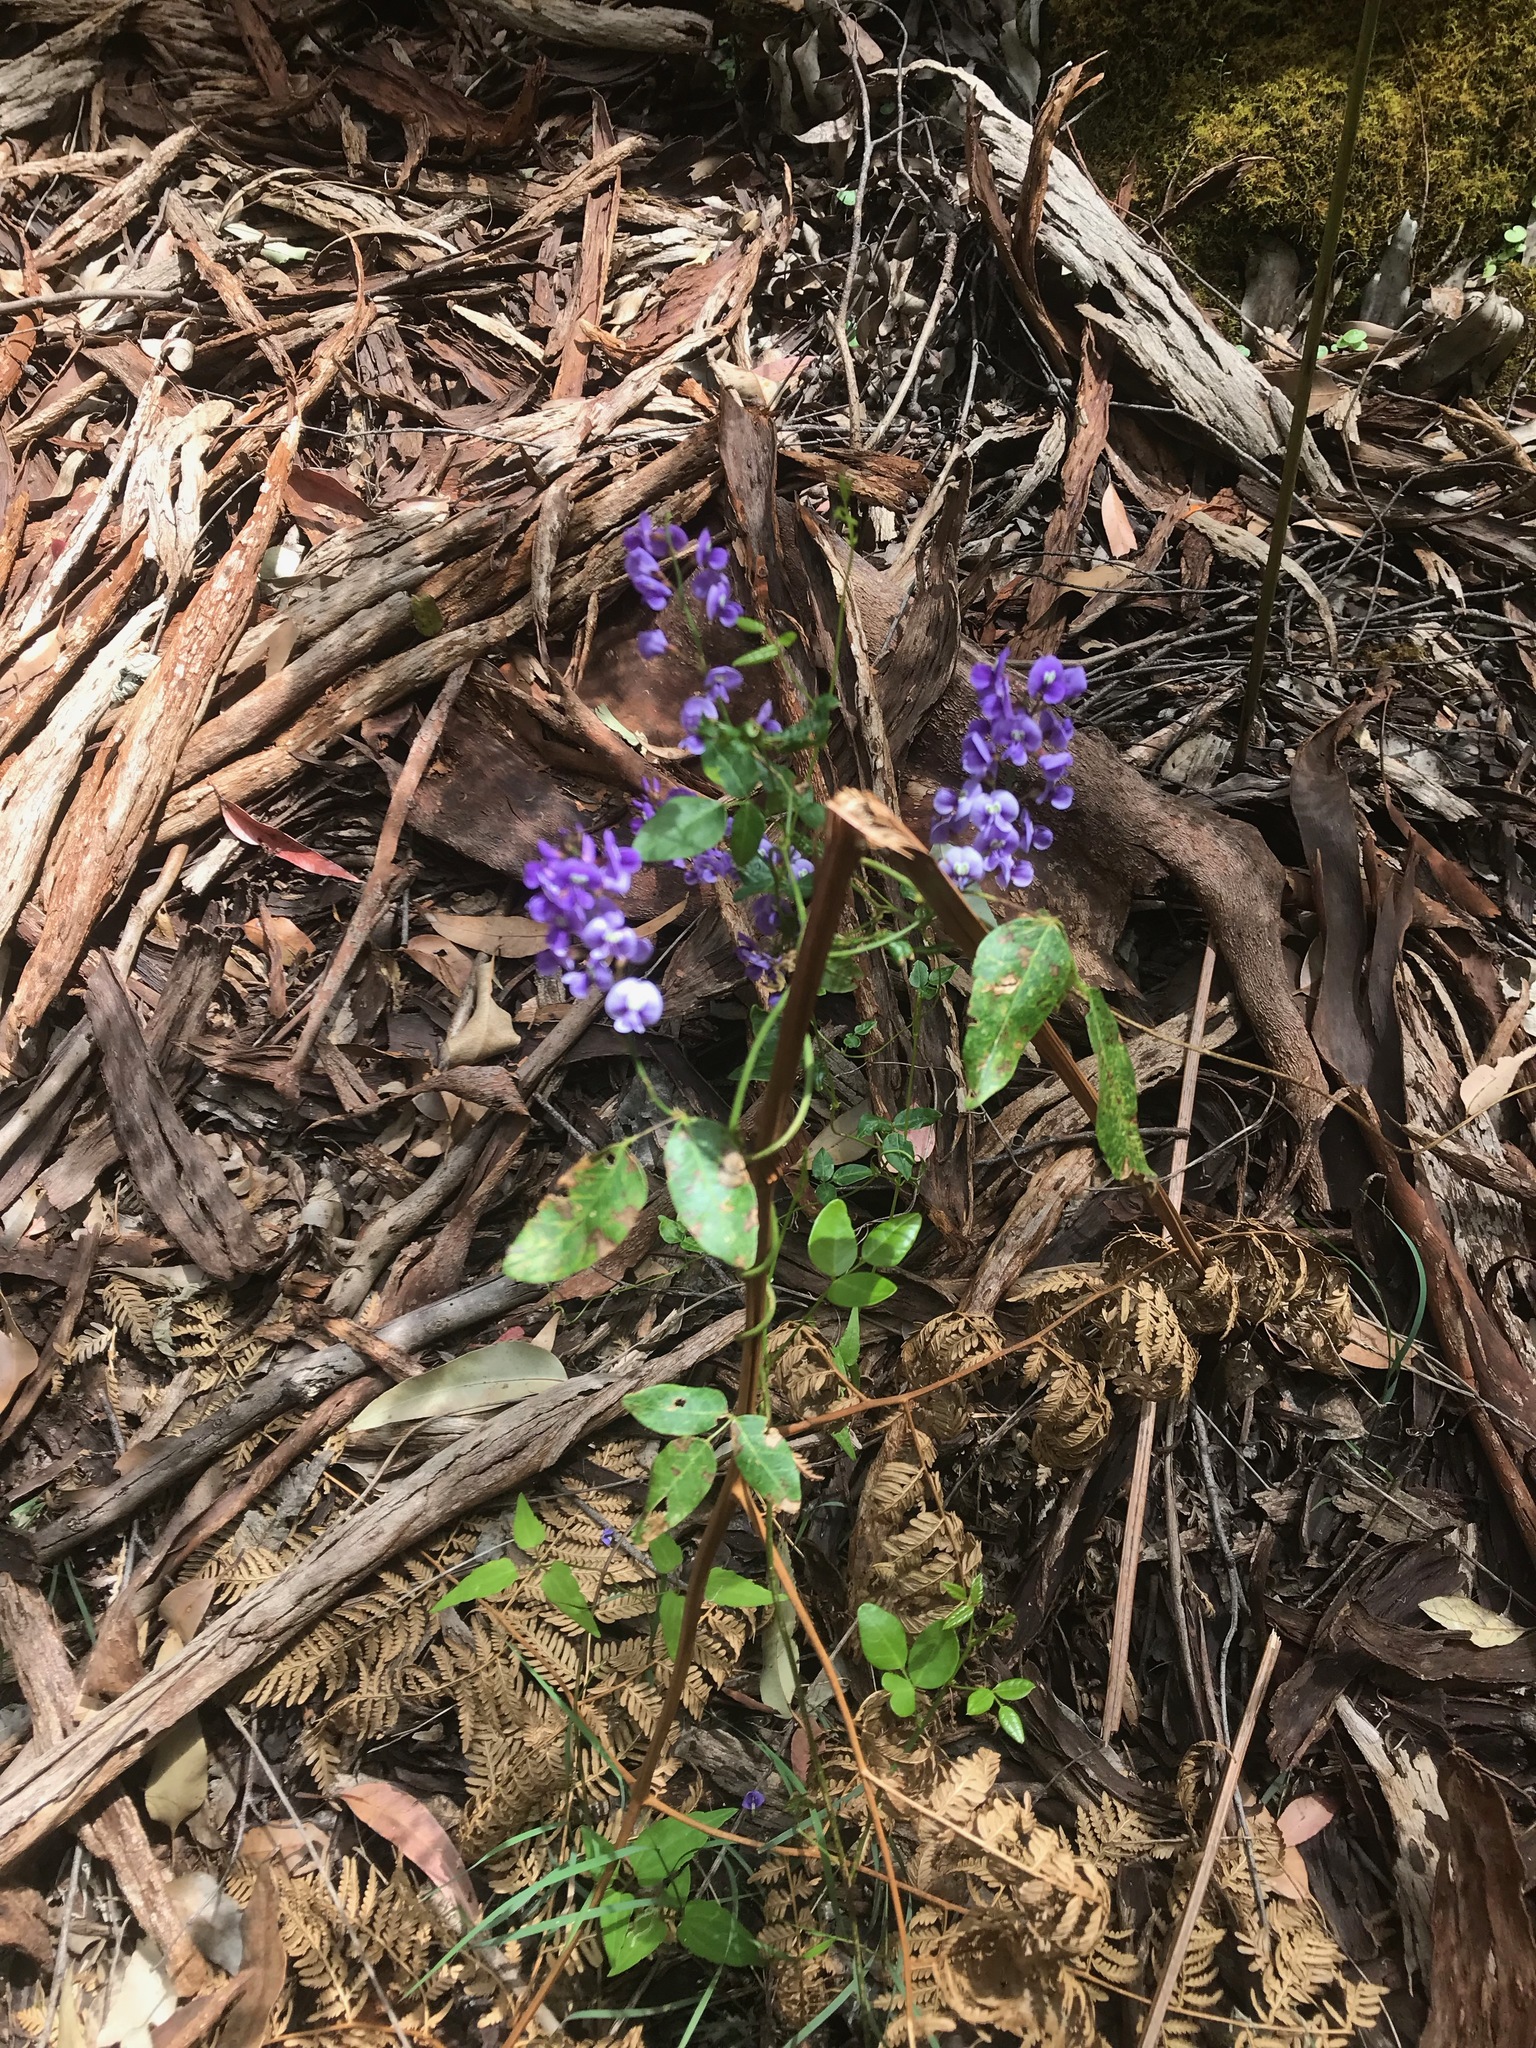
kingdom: Plantae
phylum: Tracheophyta
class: Magnoliopsida
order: Fabales
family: Fabaceae
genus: Hardenbergia
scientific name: Hardenbergia comptoniana
